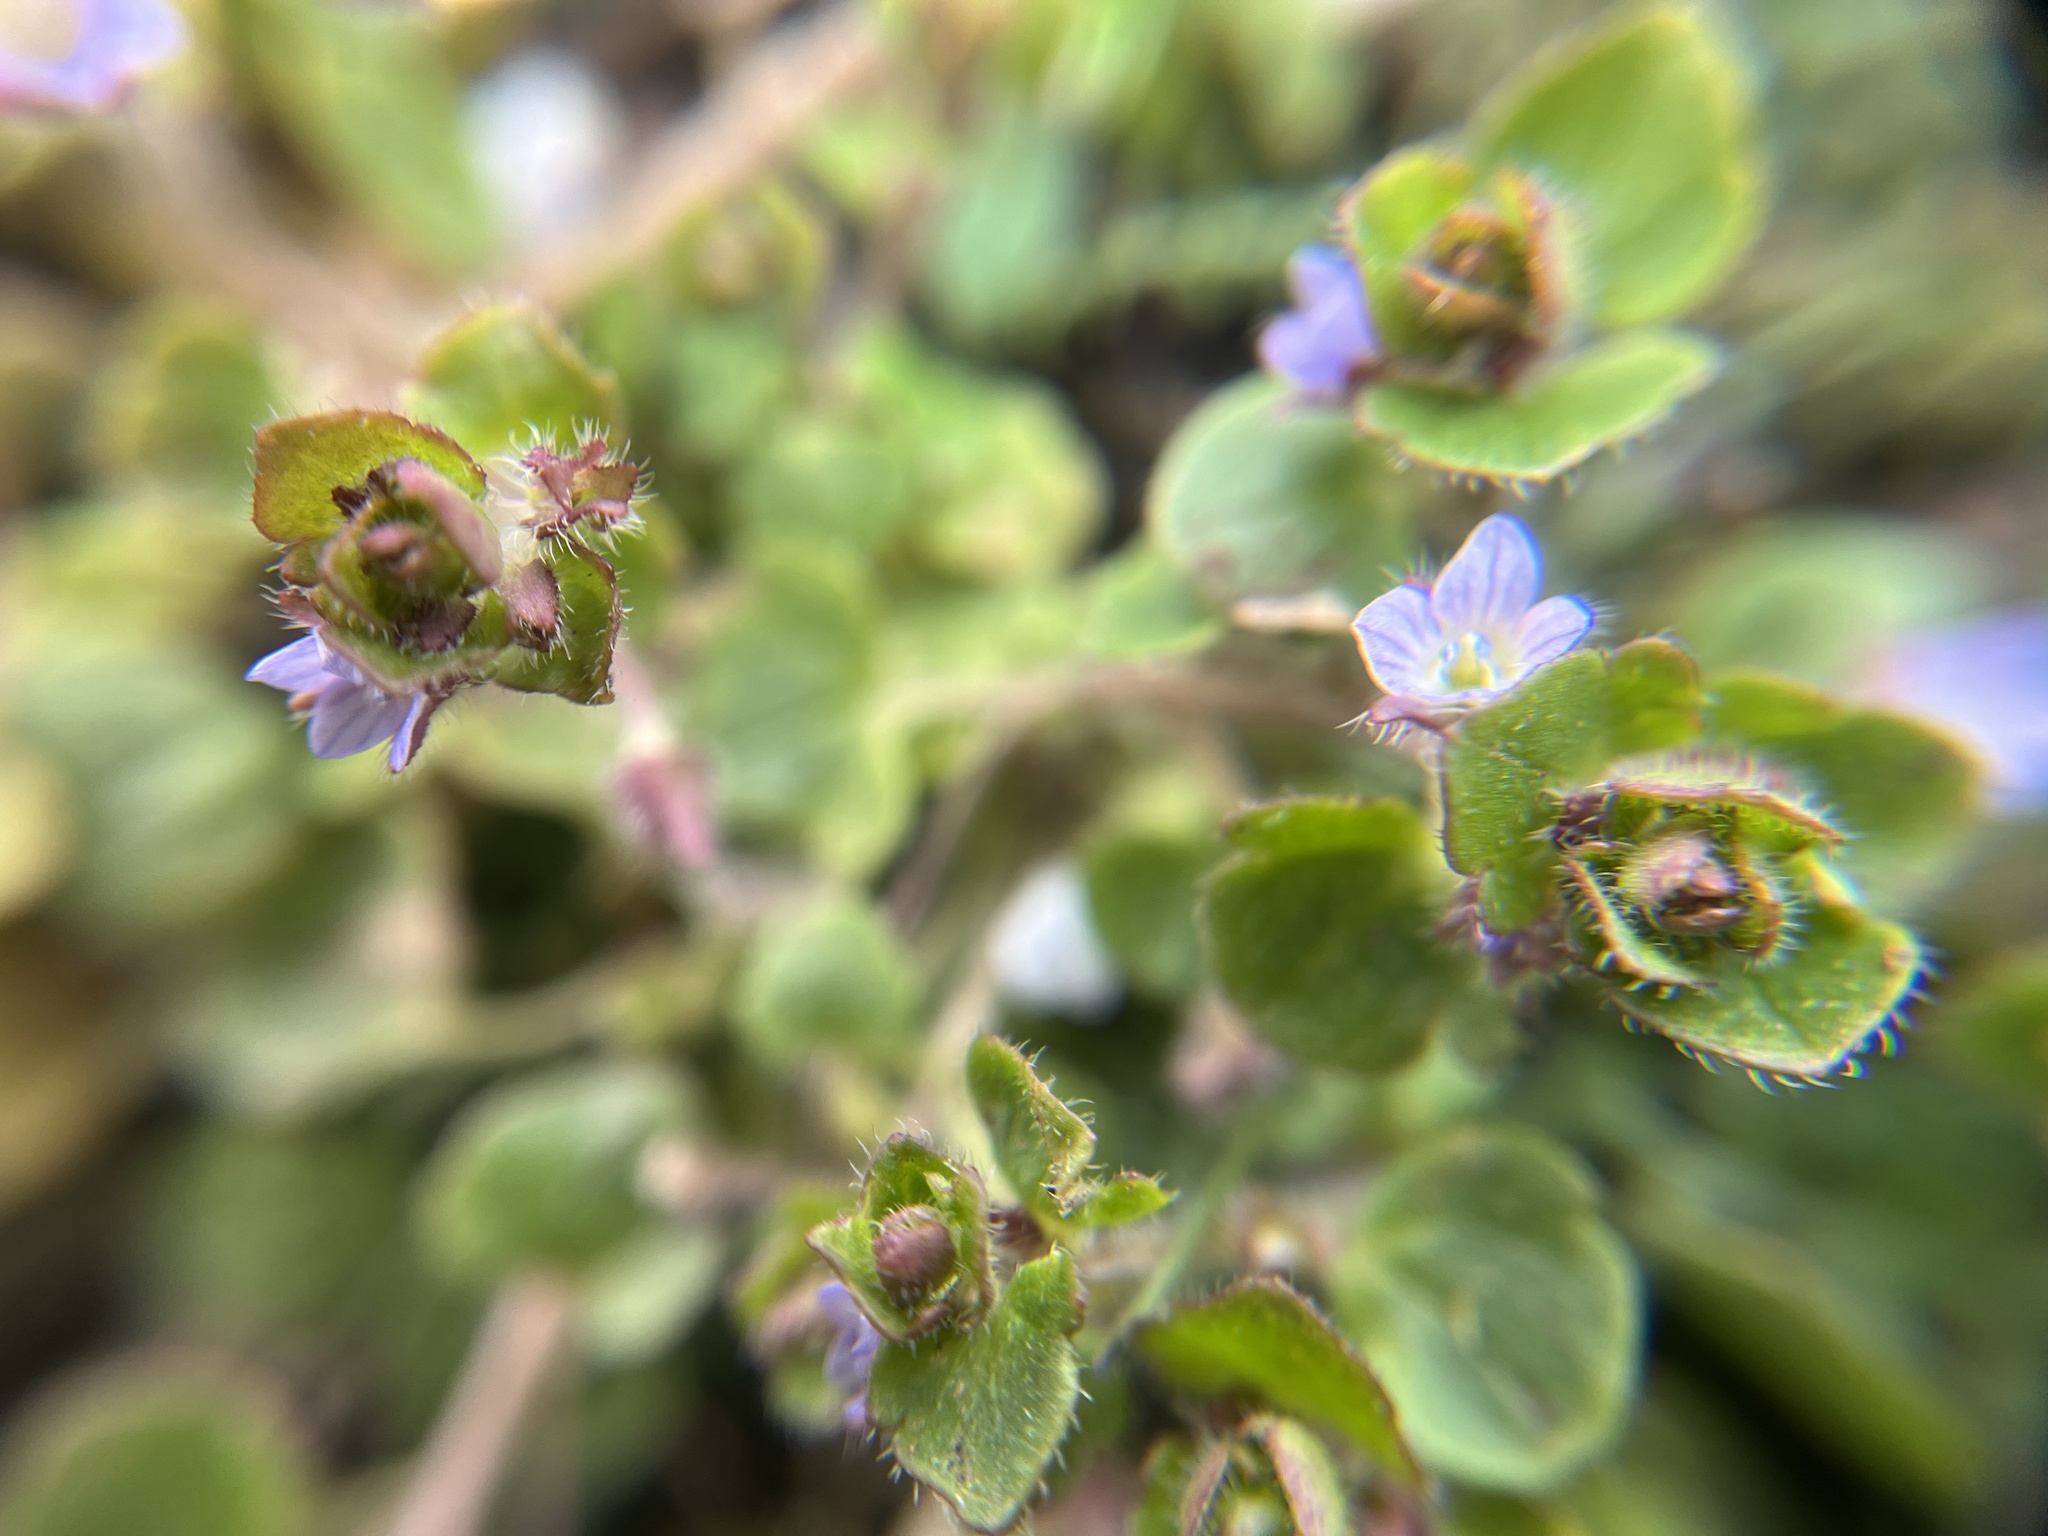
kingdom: Plantae
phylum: Tracheophyta
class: Magnoliopsida
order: Lamiales
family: Plantaginaceae
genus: Veronica
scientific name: Veronica sublobata
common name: False ivy-leaved speedwell
